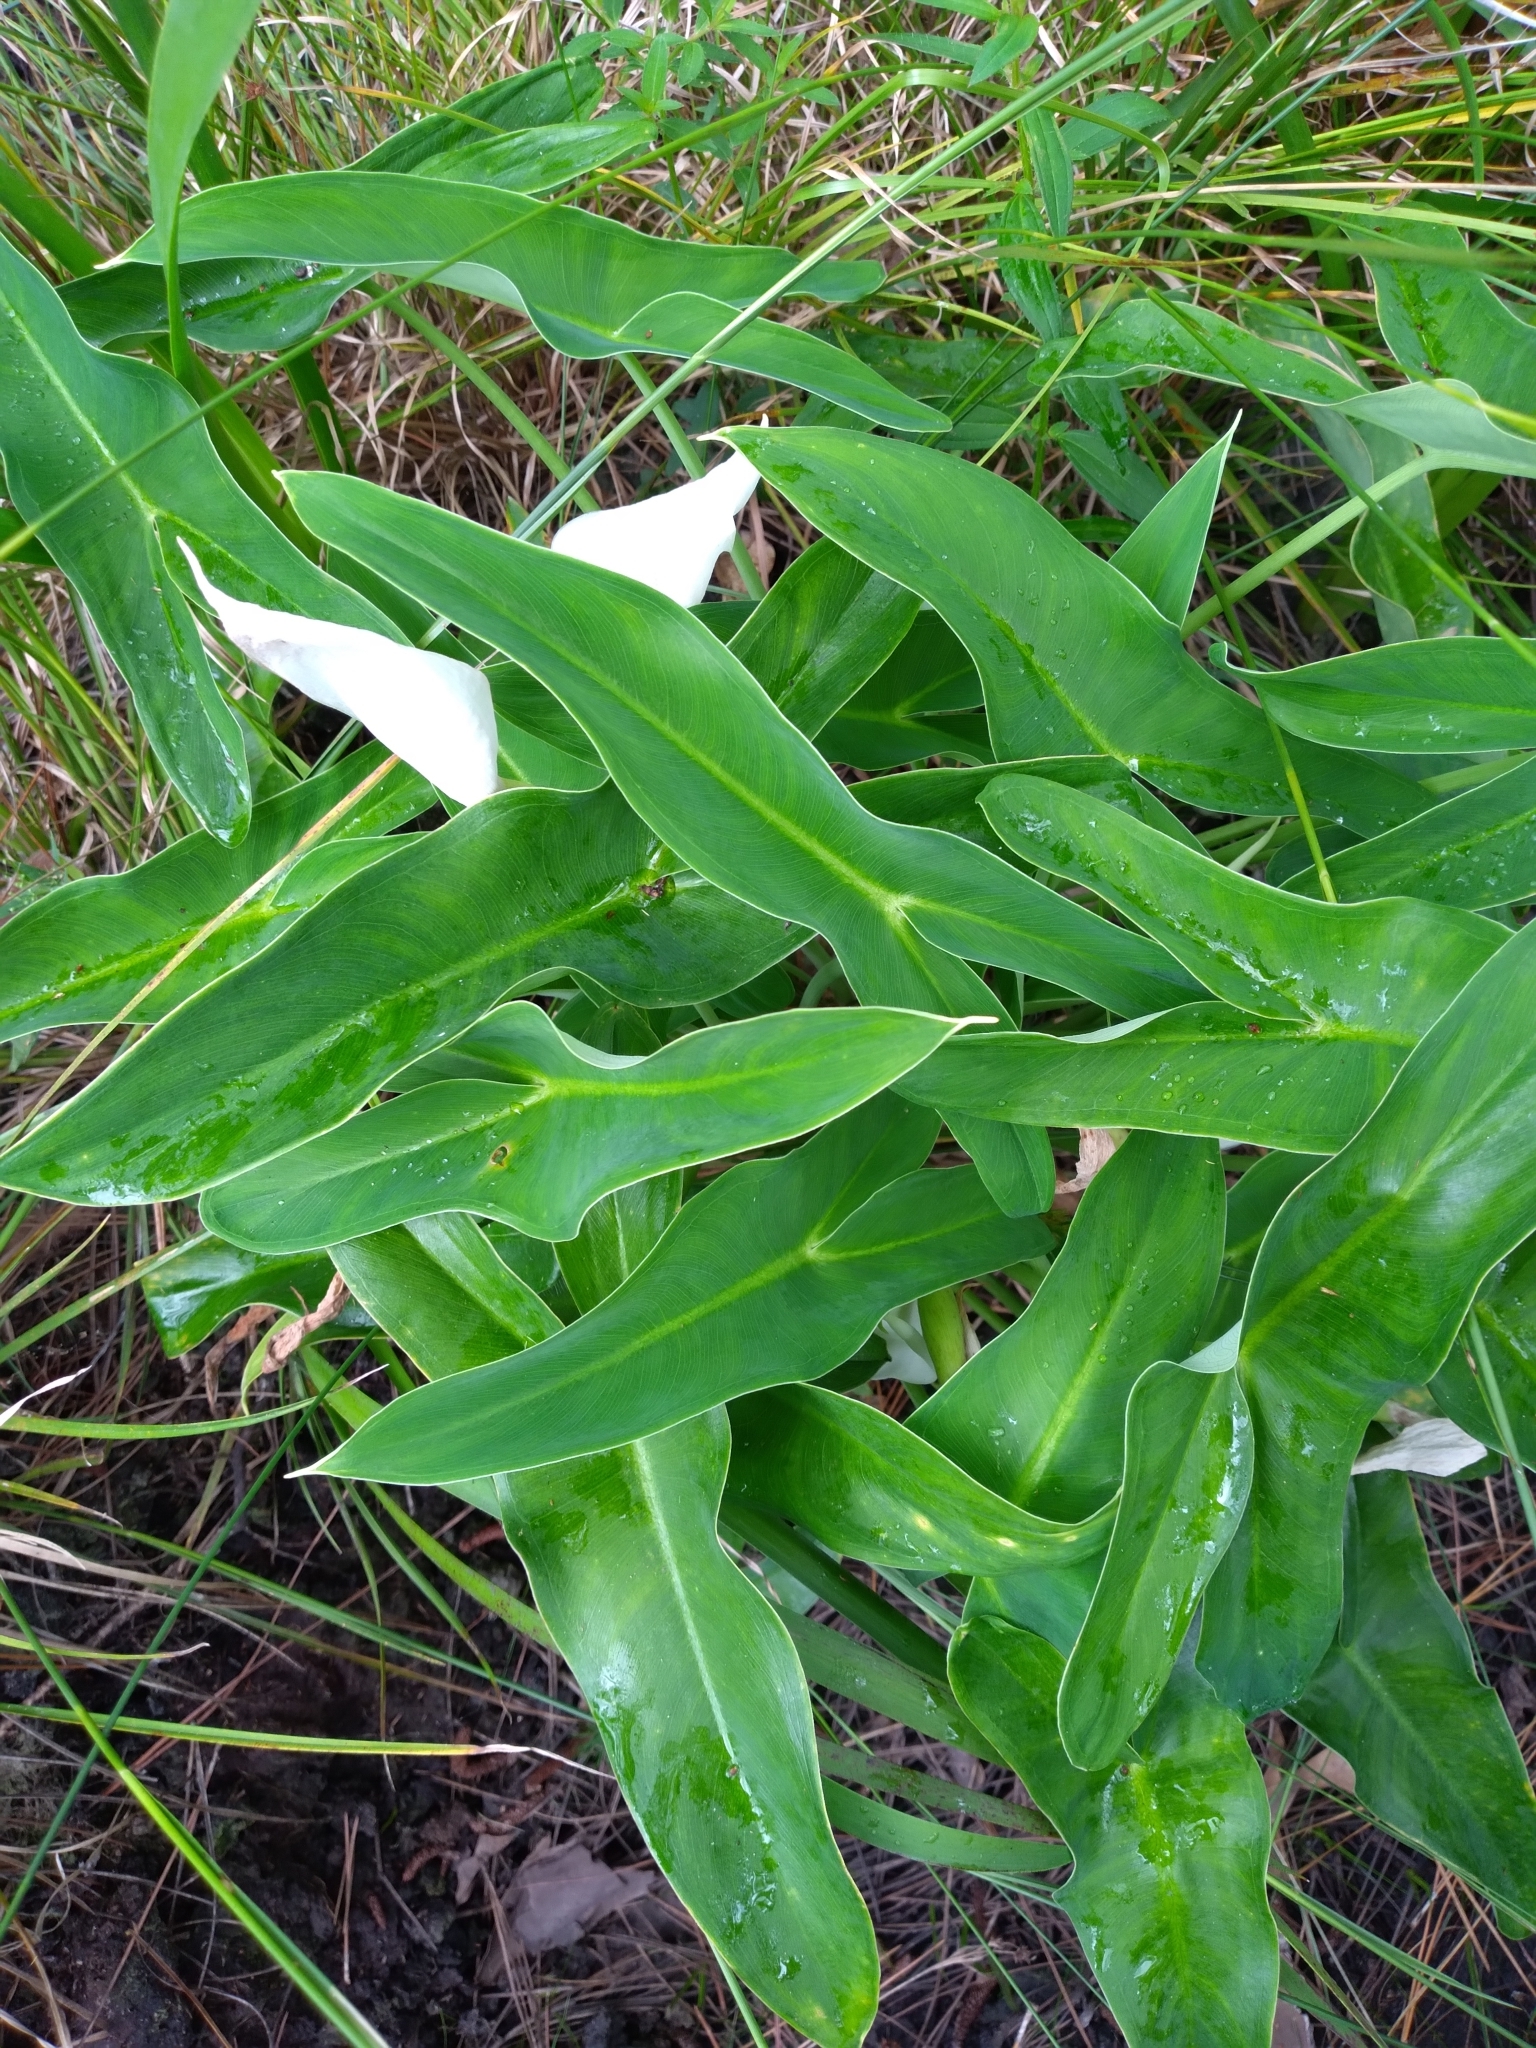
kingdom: Plantae
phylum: Tracheophyta
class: Liliopsida
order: Alismatales
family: Araceae
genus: Peltandra
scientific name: Peltandra sagittifolia
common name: White arrow arum
